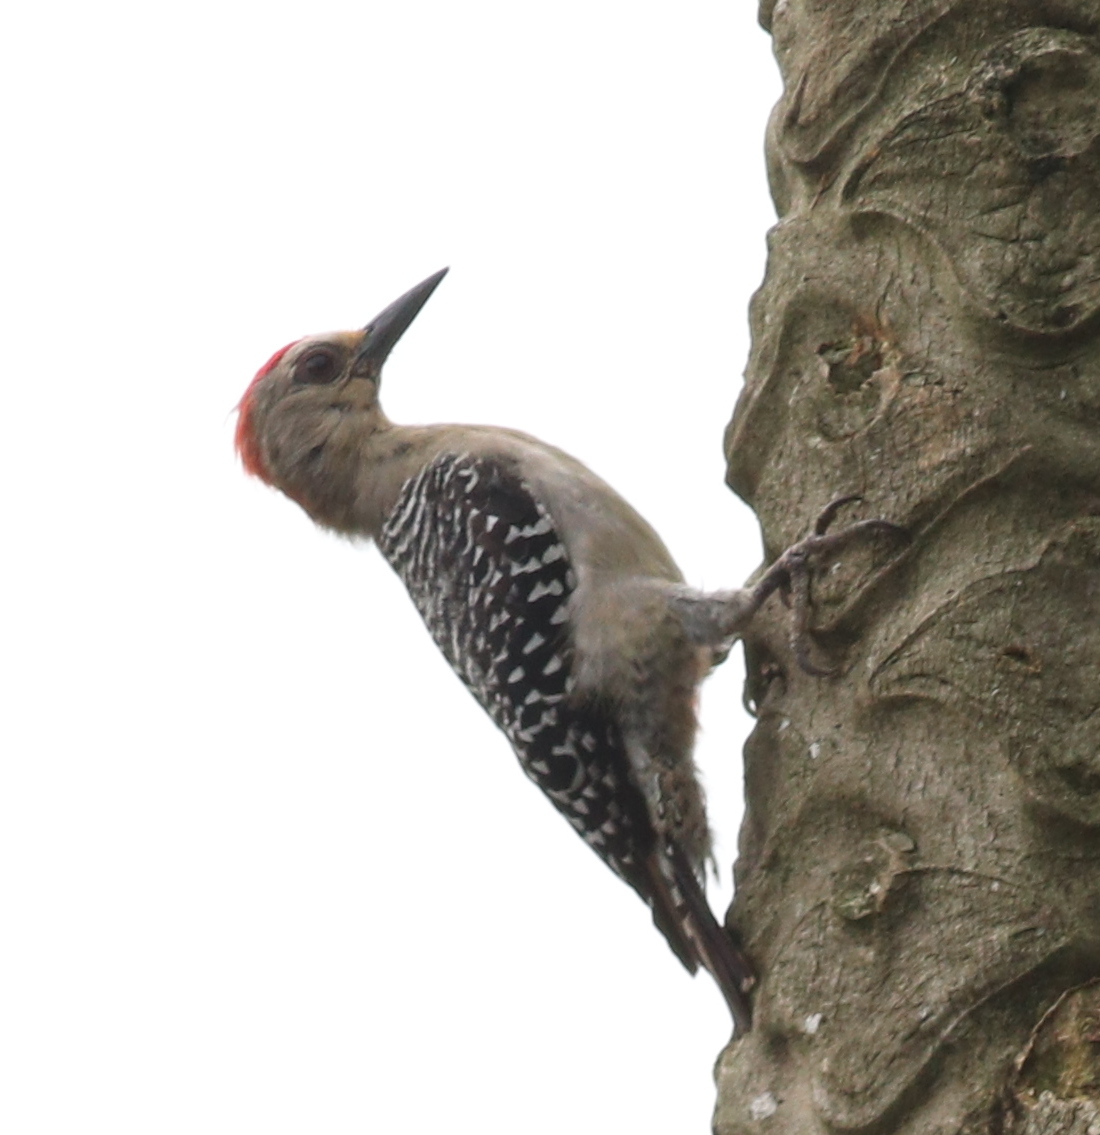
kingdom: Animalia
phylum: Chordata
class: Aves
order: Piciformes
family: Picidae
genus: Melanerpes
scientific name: Melanerpes rubricapillus
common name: Red-crowned woodpecker
